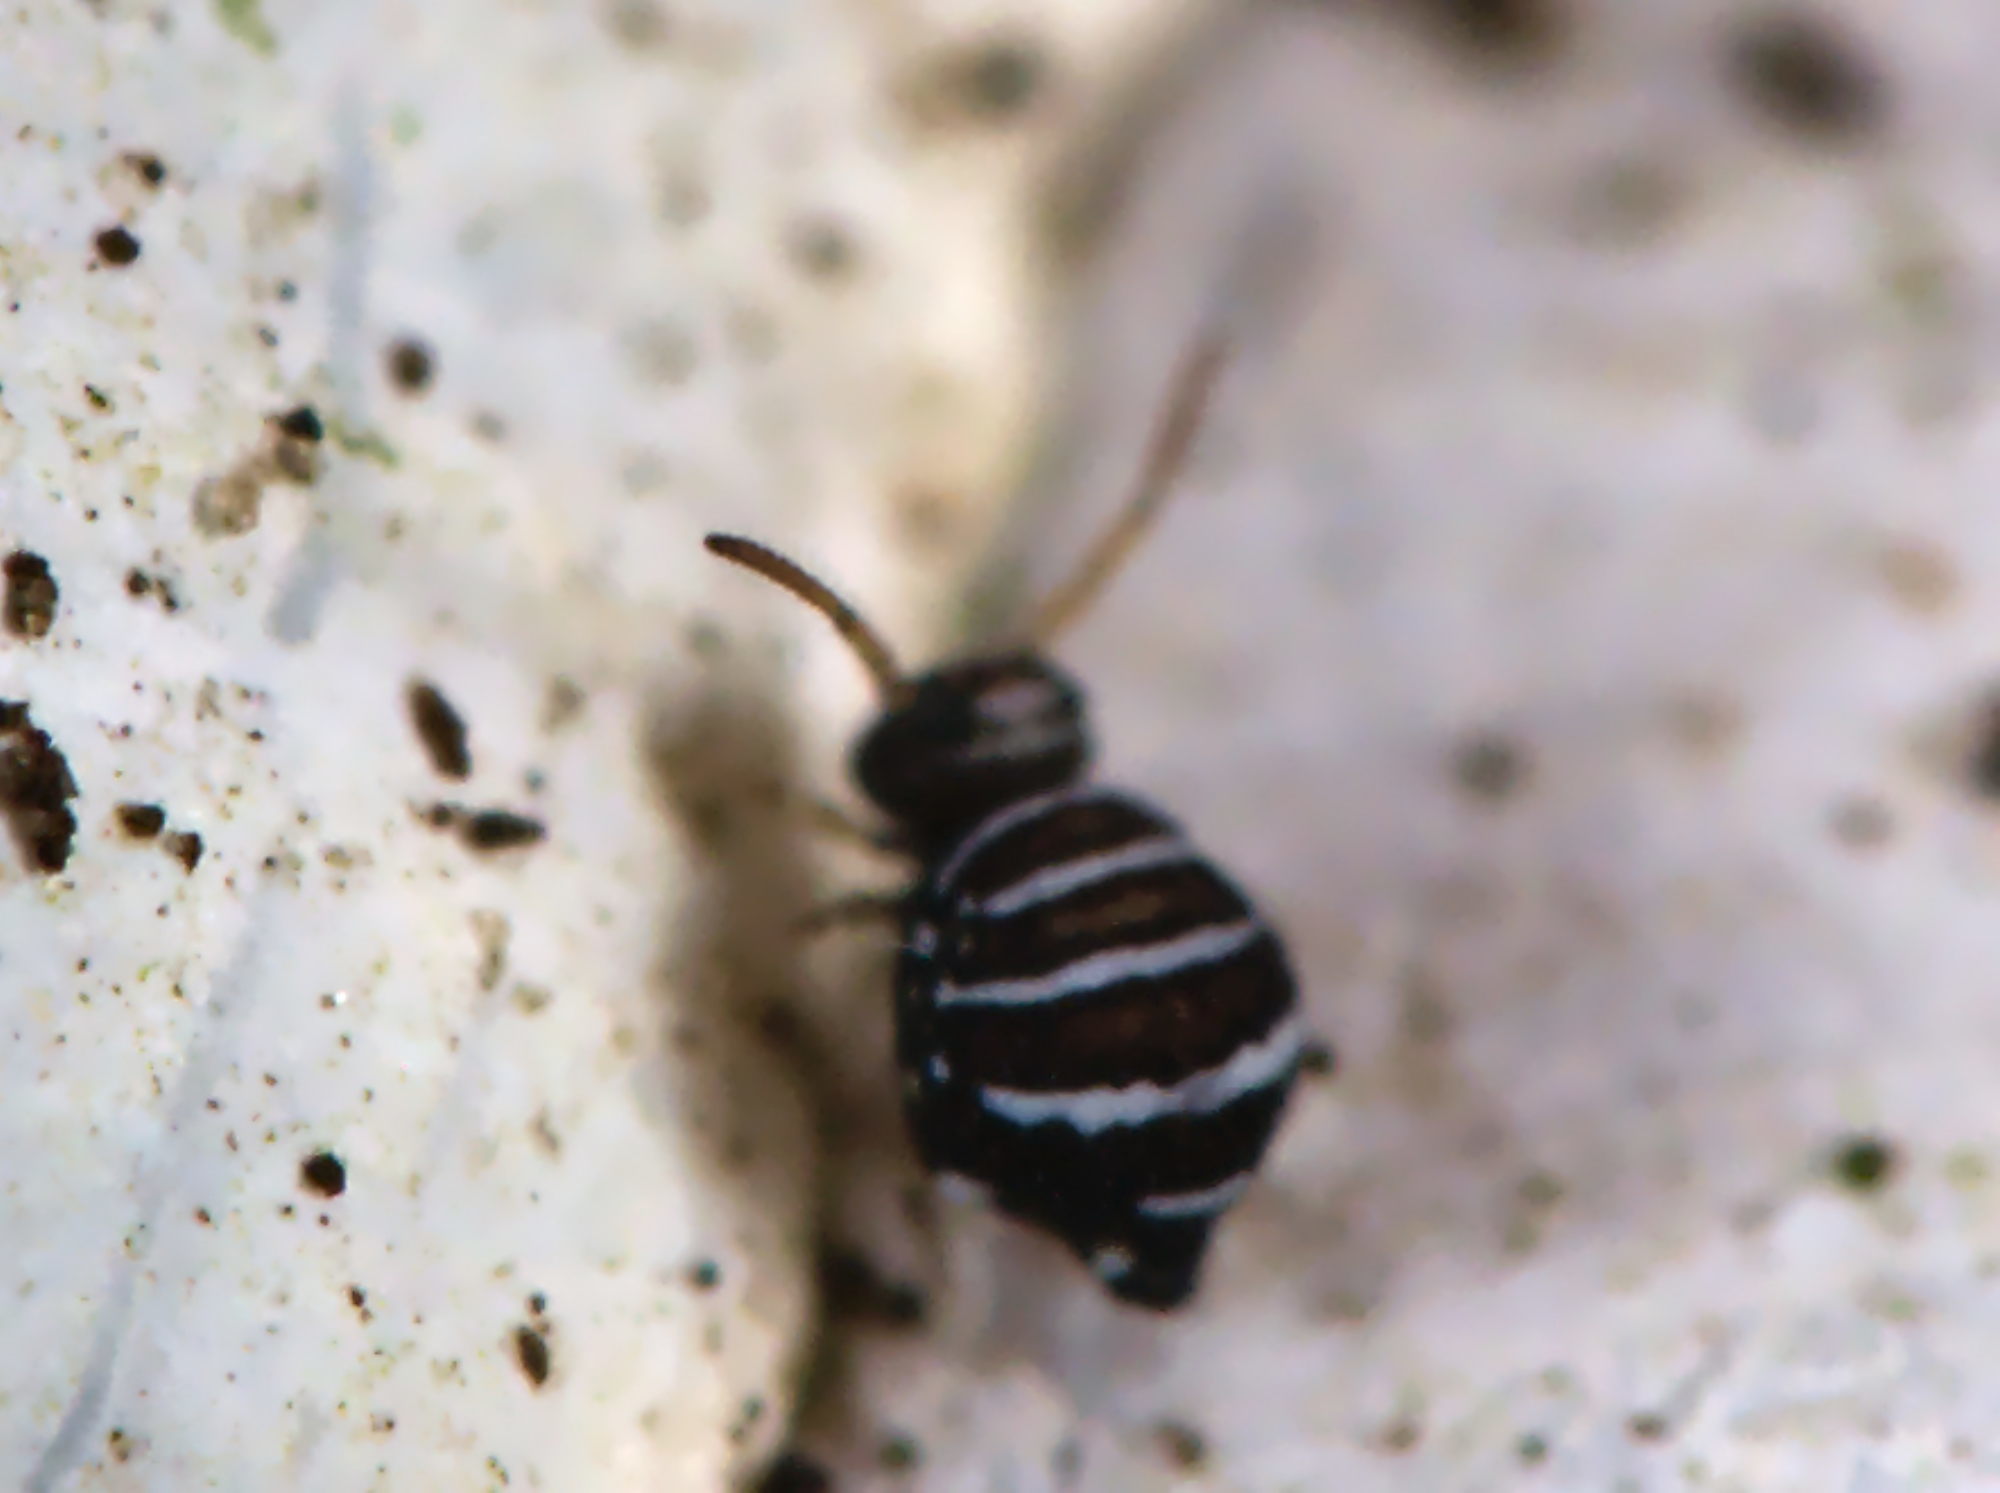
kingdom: Animalia
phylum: Arthropoda
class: Collembola
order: Symphypleona
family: Bourletiellidae
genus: Fasciosminthurus
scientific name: Fasciosminthurus quinquefasciatus
